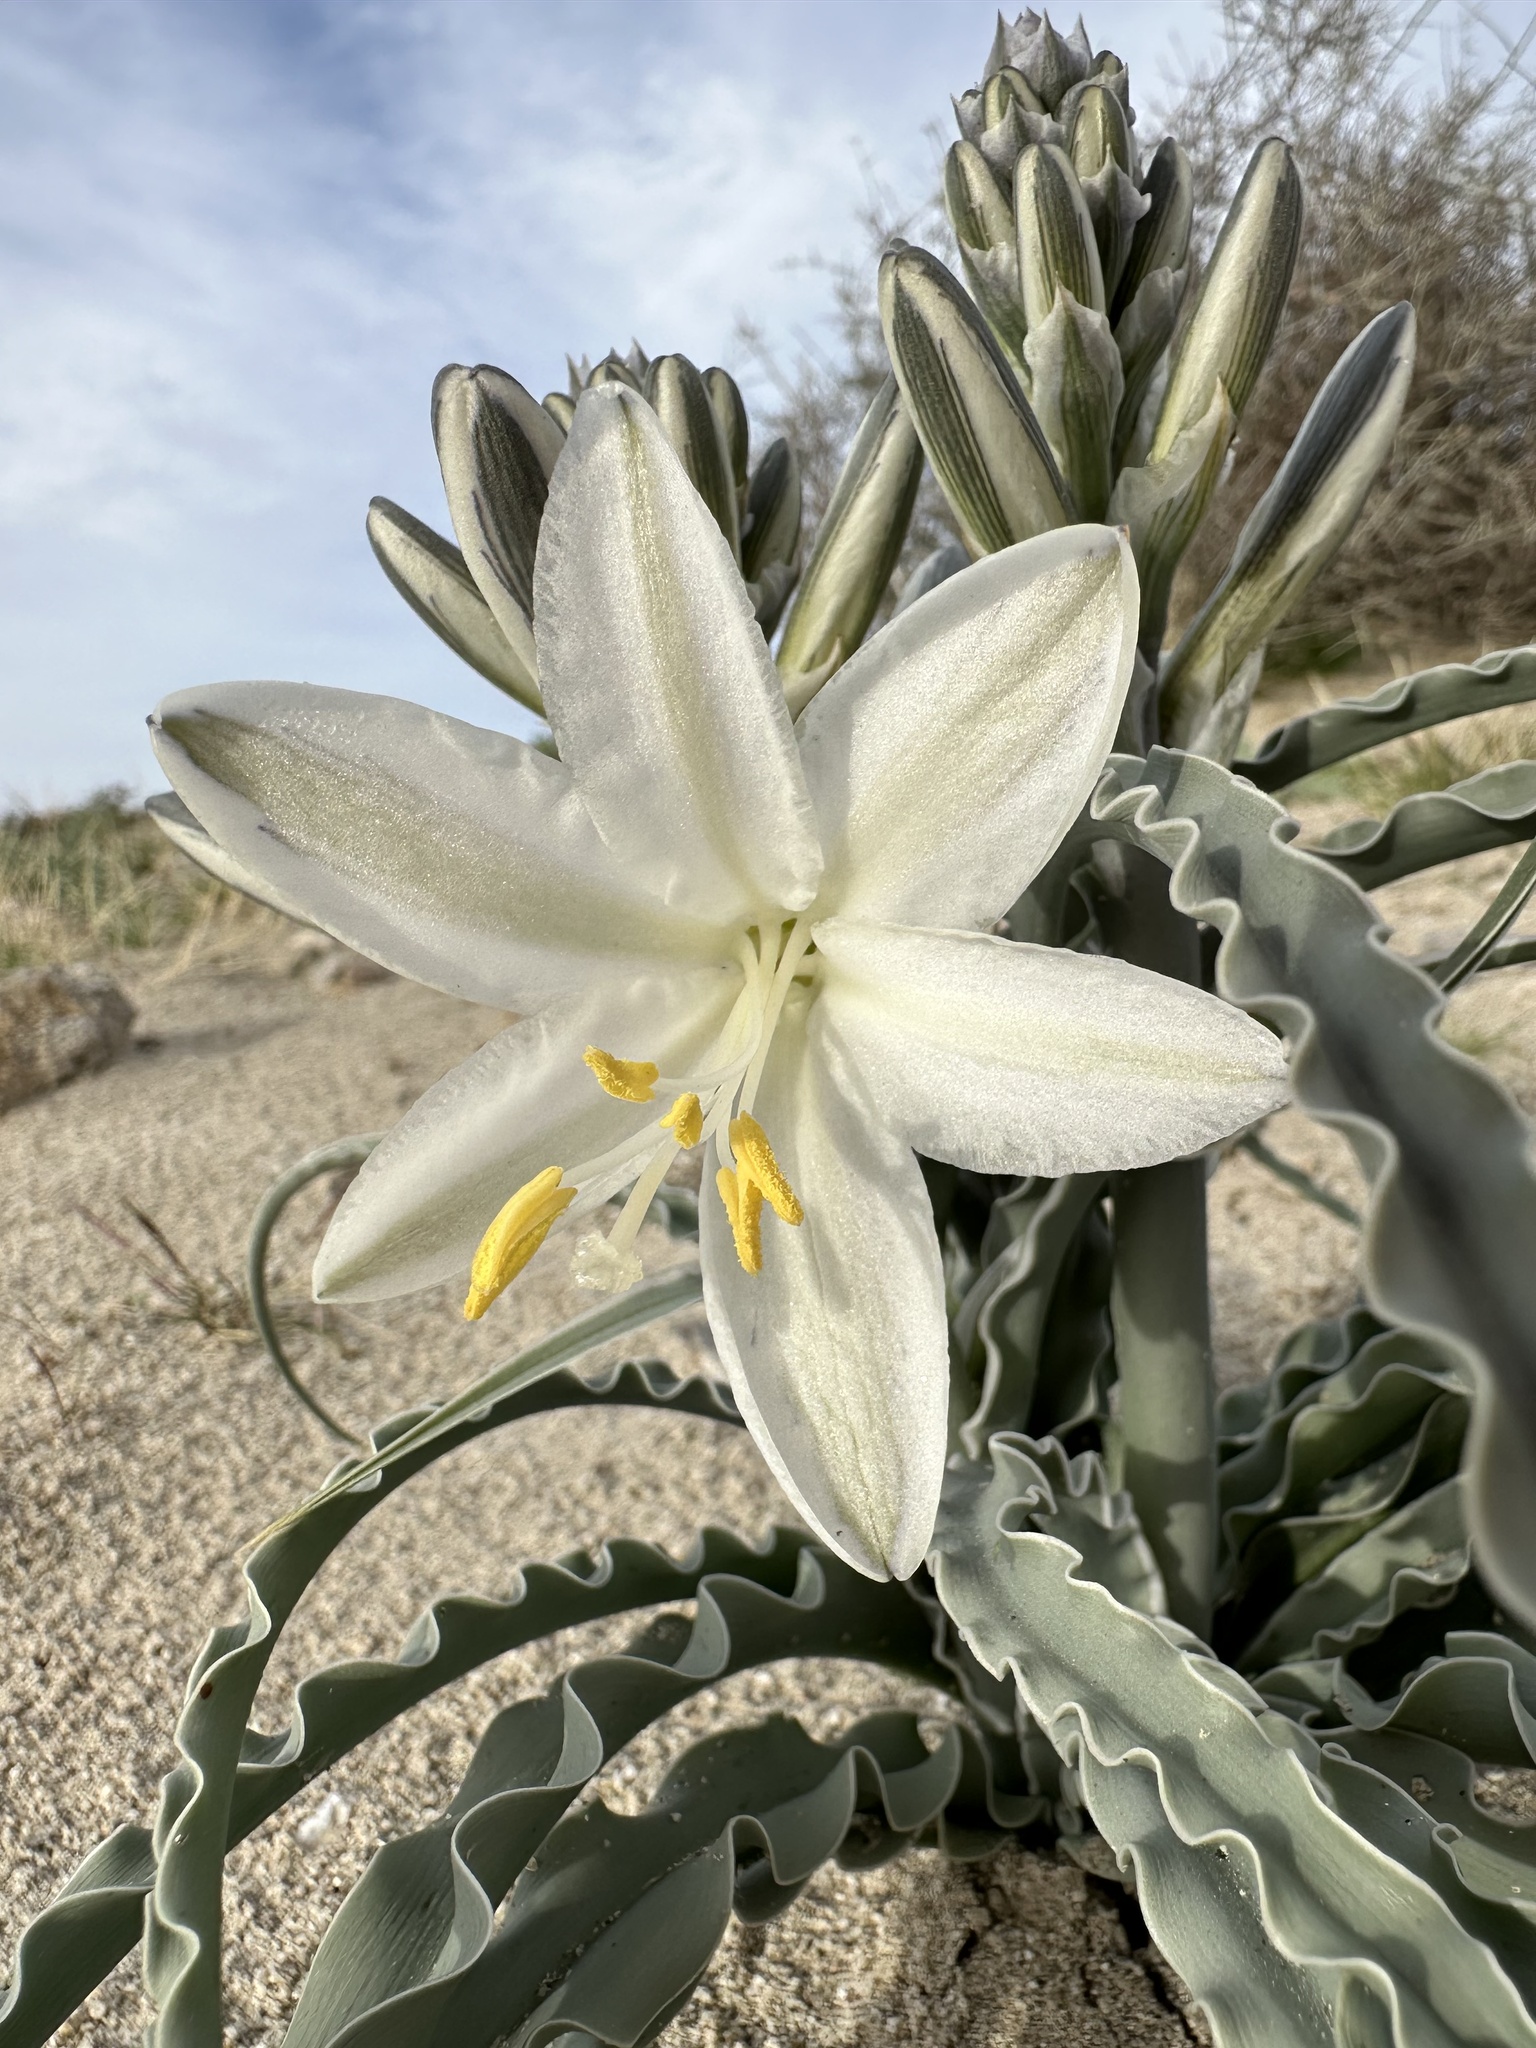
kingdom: Plantae
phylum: Tracheophyta
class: Liliopsida
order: Asparagales
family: Asparagaceae
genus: Hesperocallis
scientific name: Hesperocallis undulata
